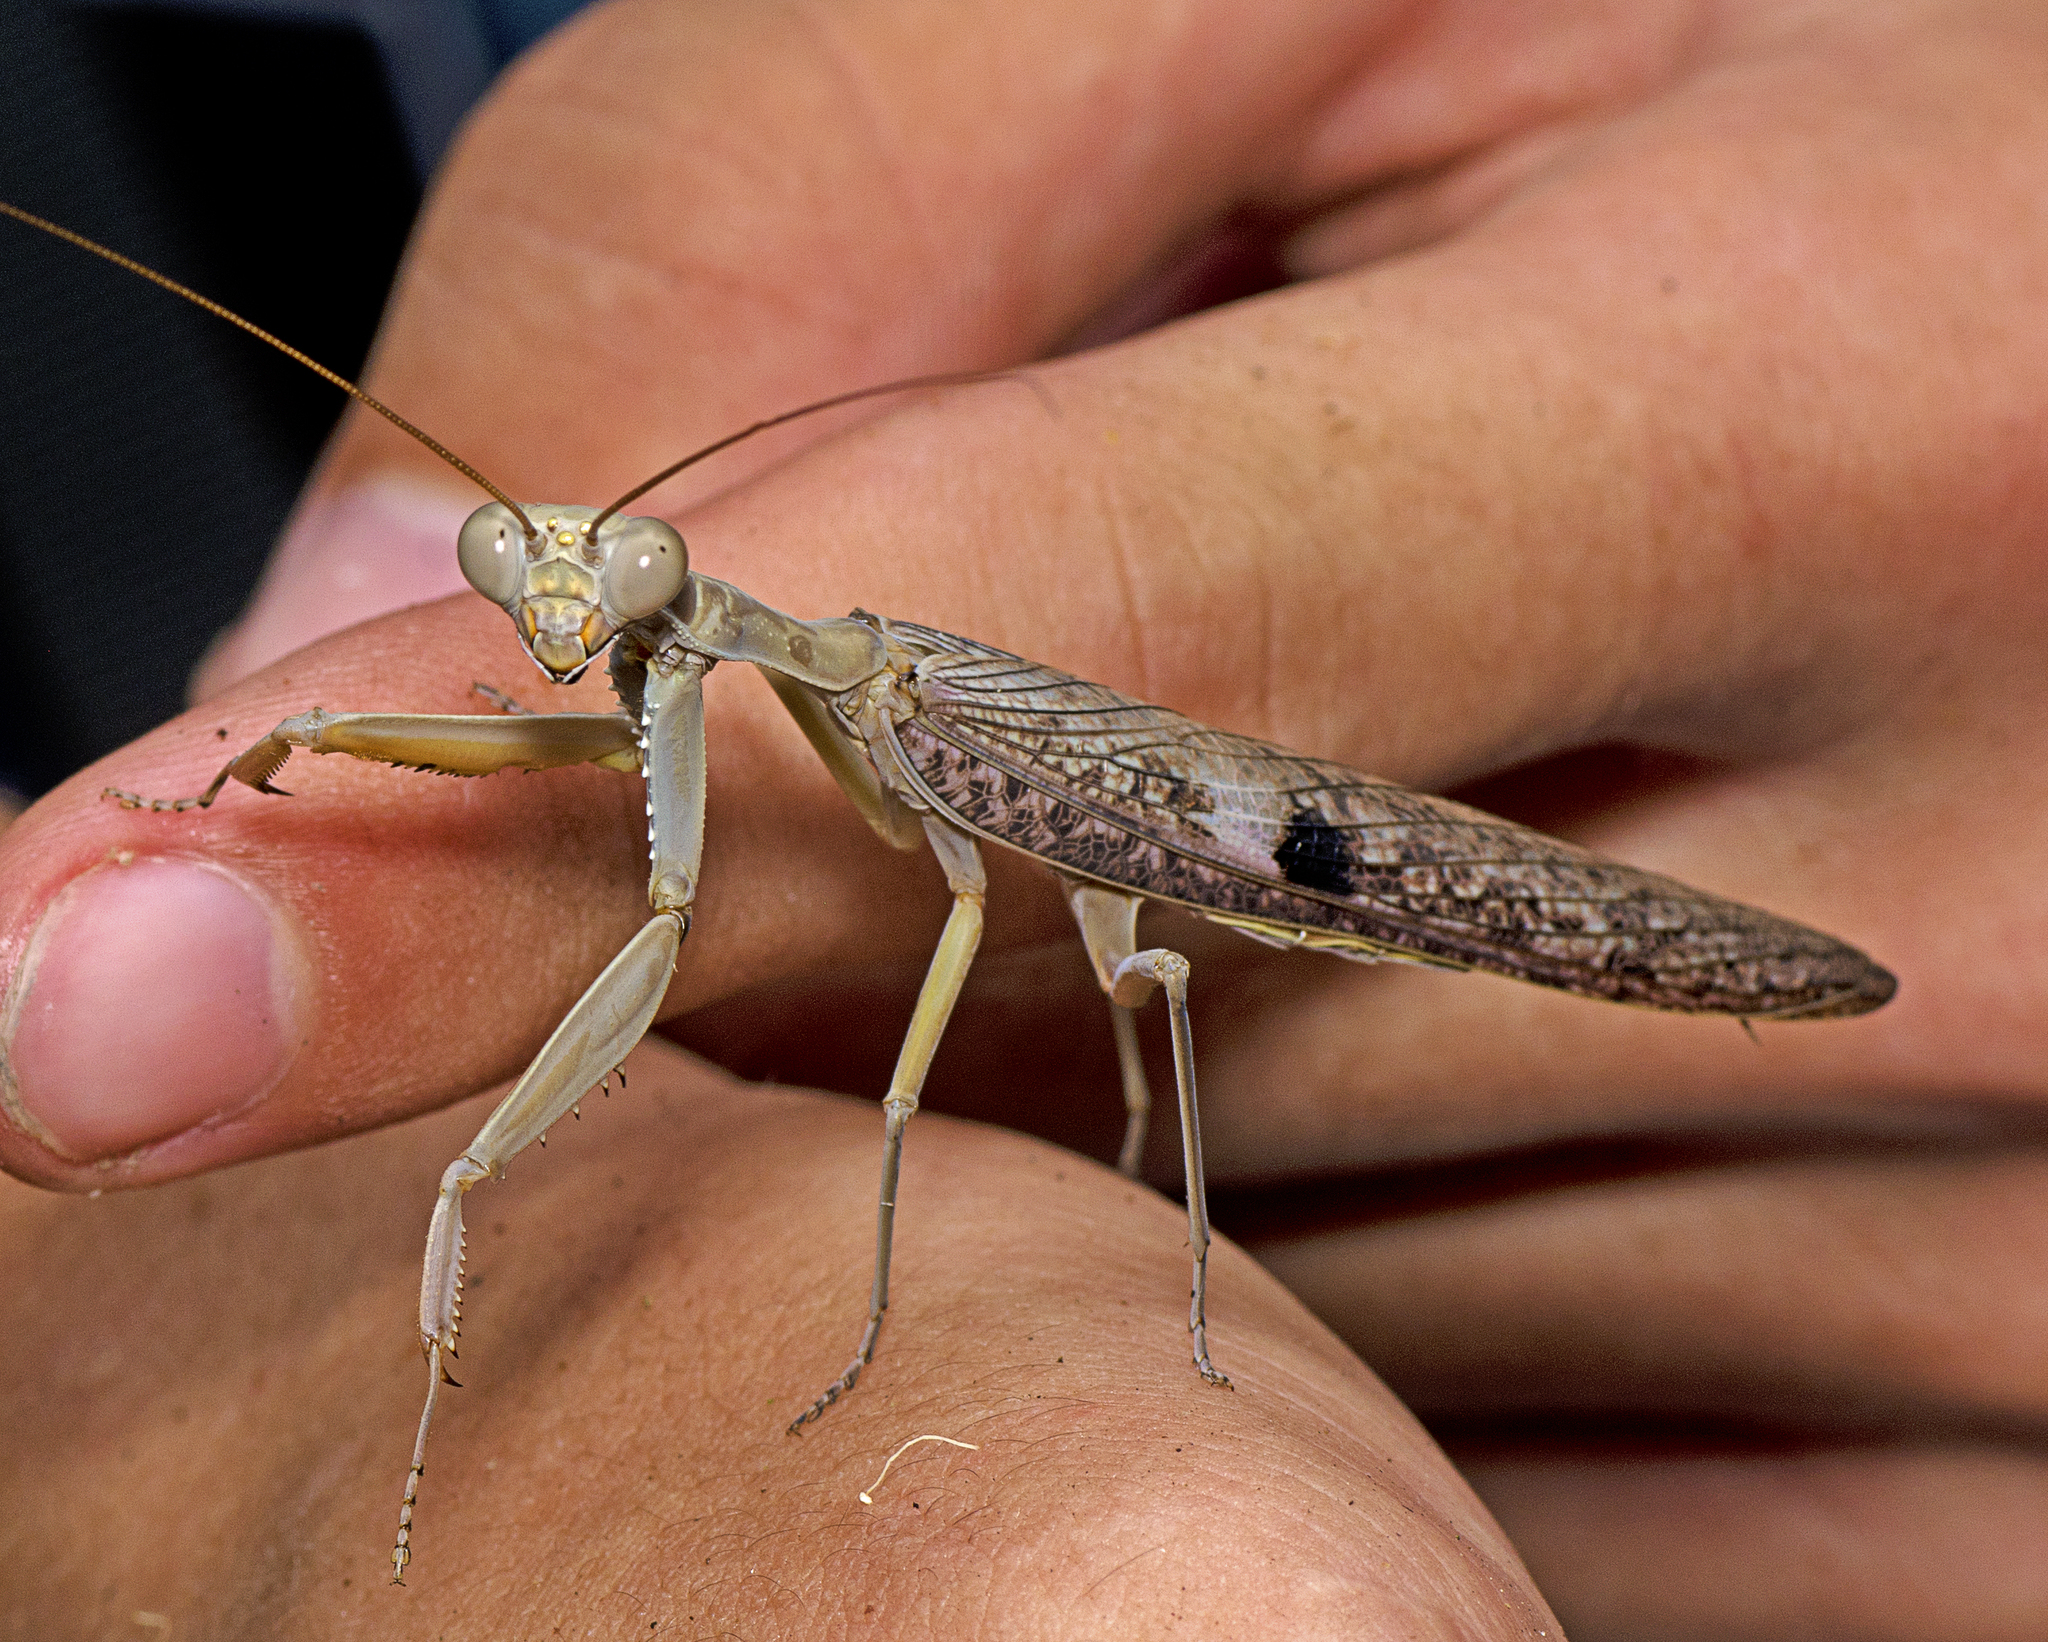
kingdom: Animalia
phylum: Arthropoda
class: Insecta
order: Mantodea
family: Mantidae
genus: Sphodropoda
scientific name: Sphodropoda tristis
